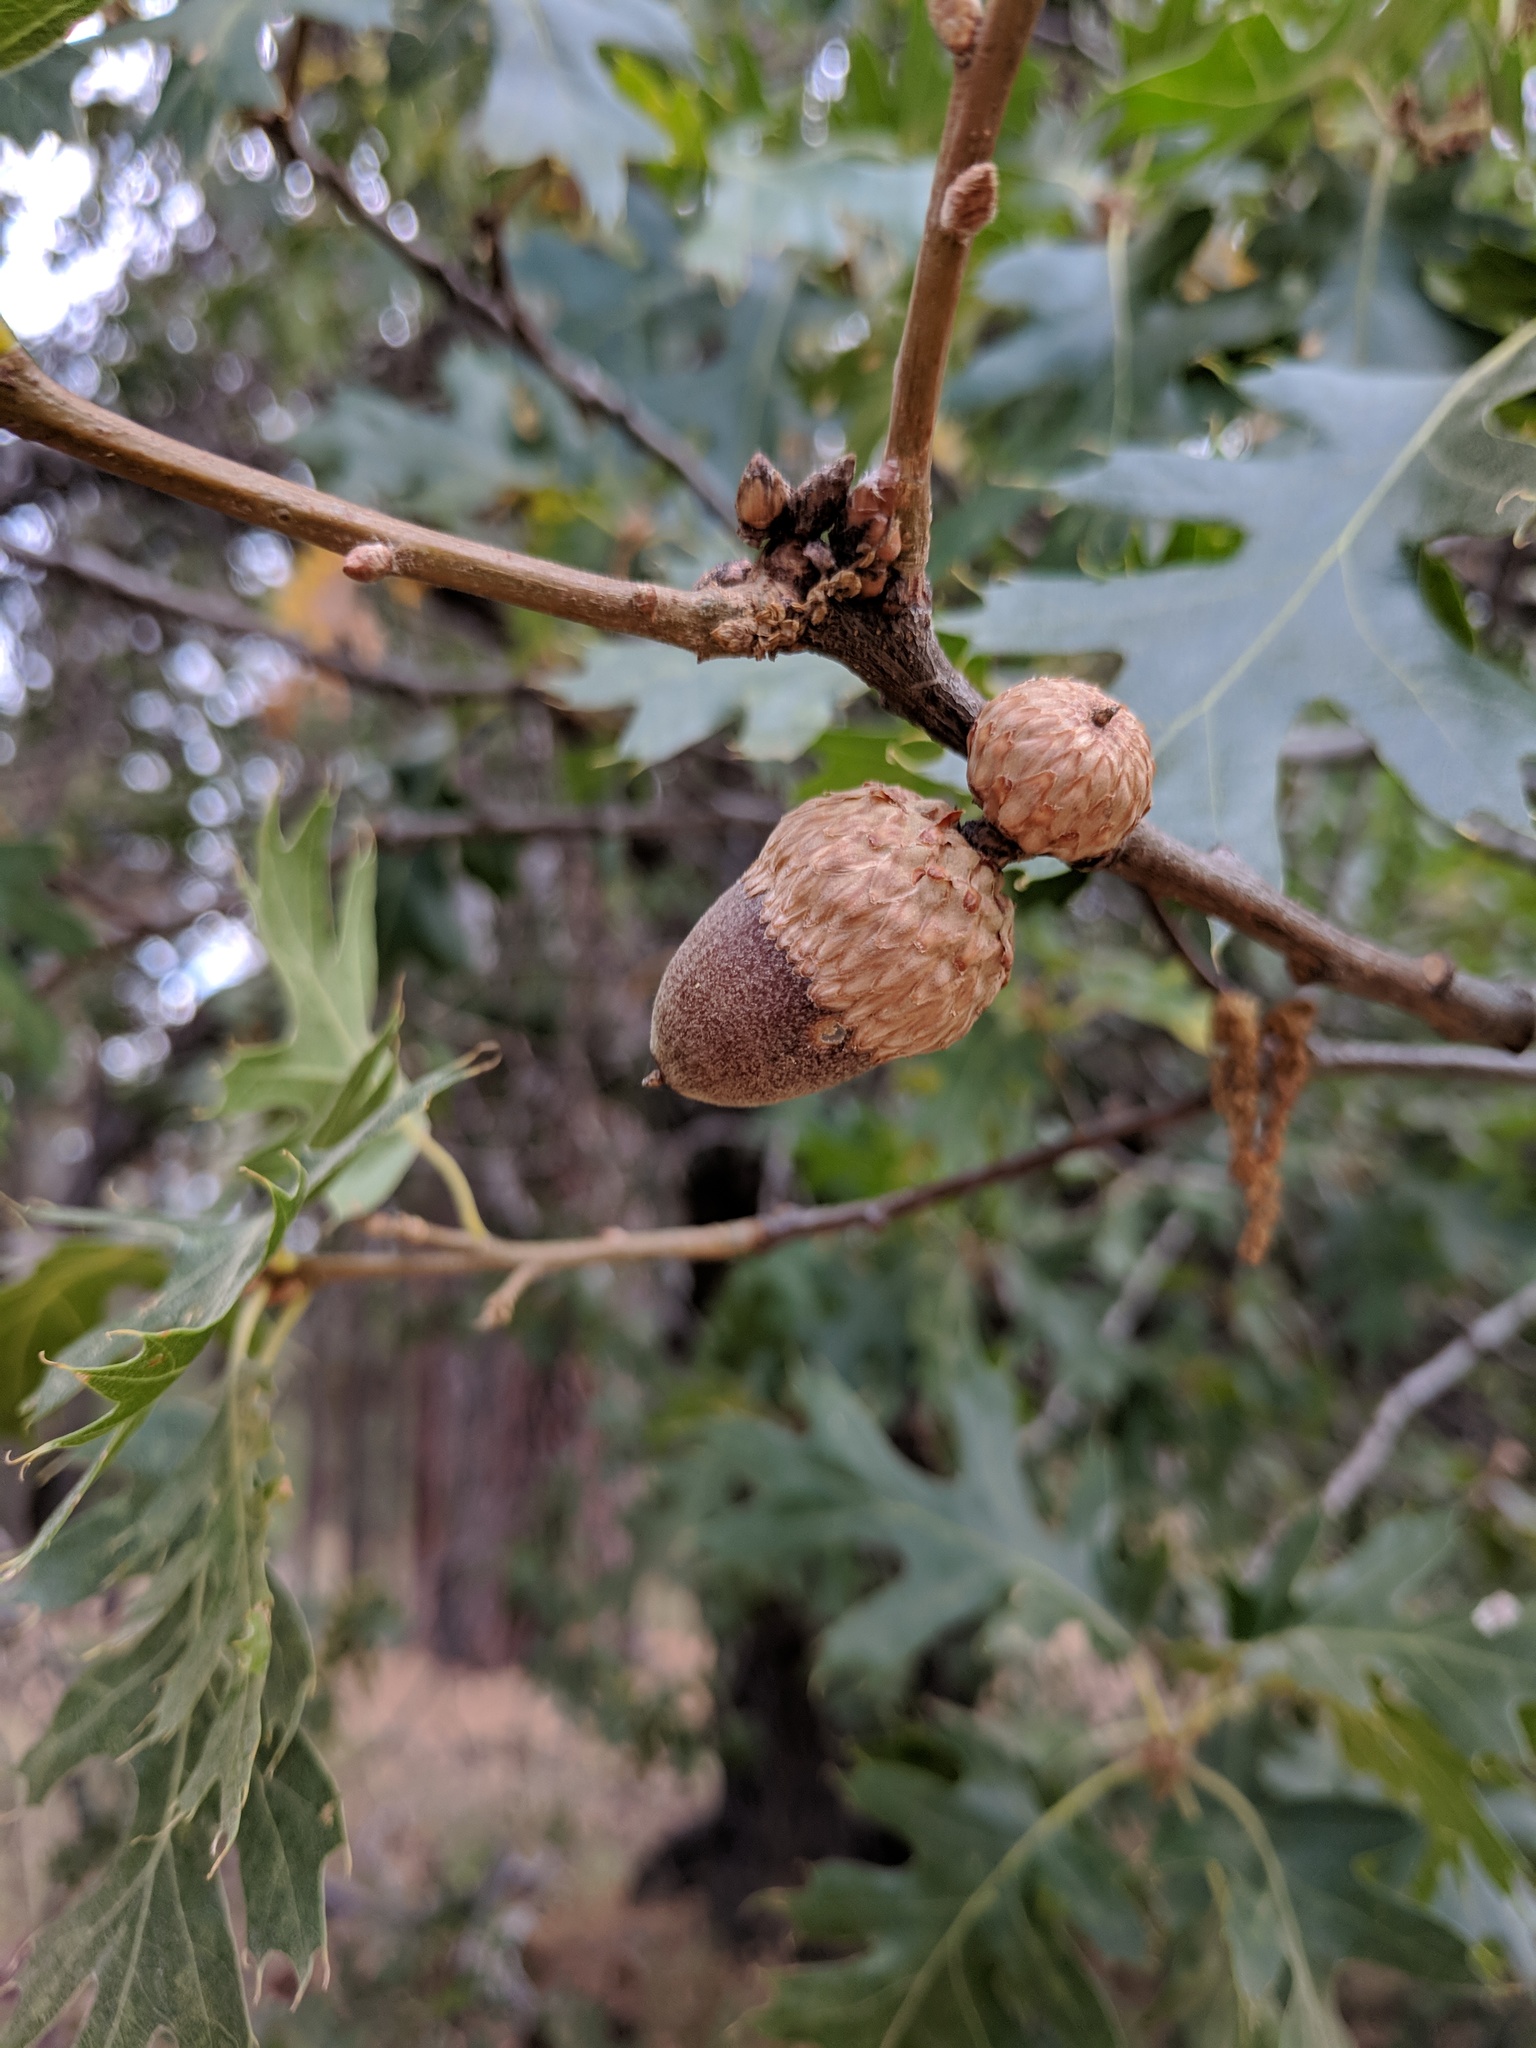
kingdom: Plantae
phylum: Tracheophyta
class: Magnoliopsida
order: Fagales
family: Fagaceae
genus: Quercus
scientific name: Quercus kelloggii
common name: California black oak
